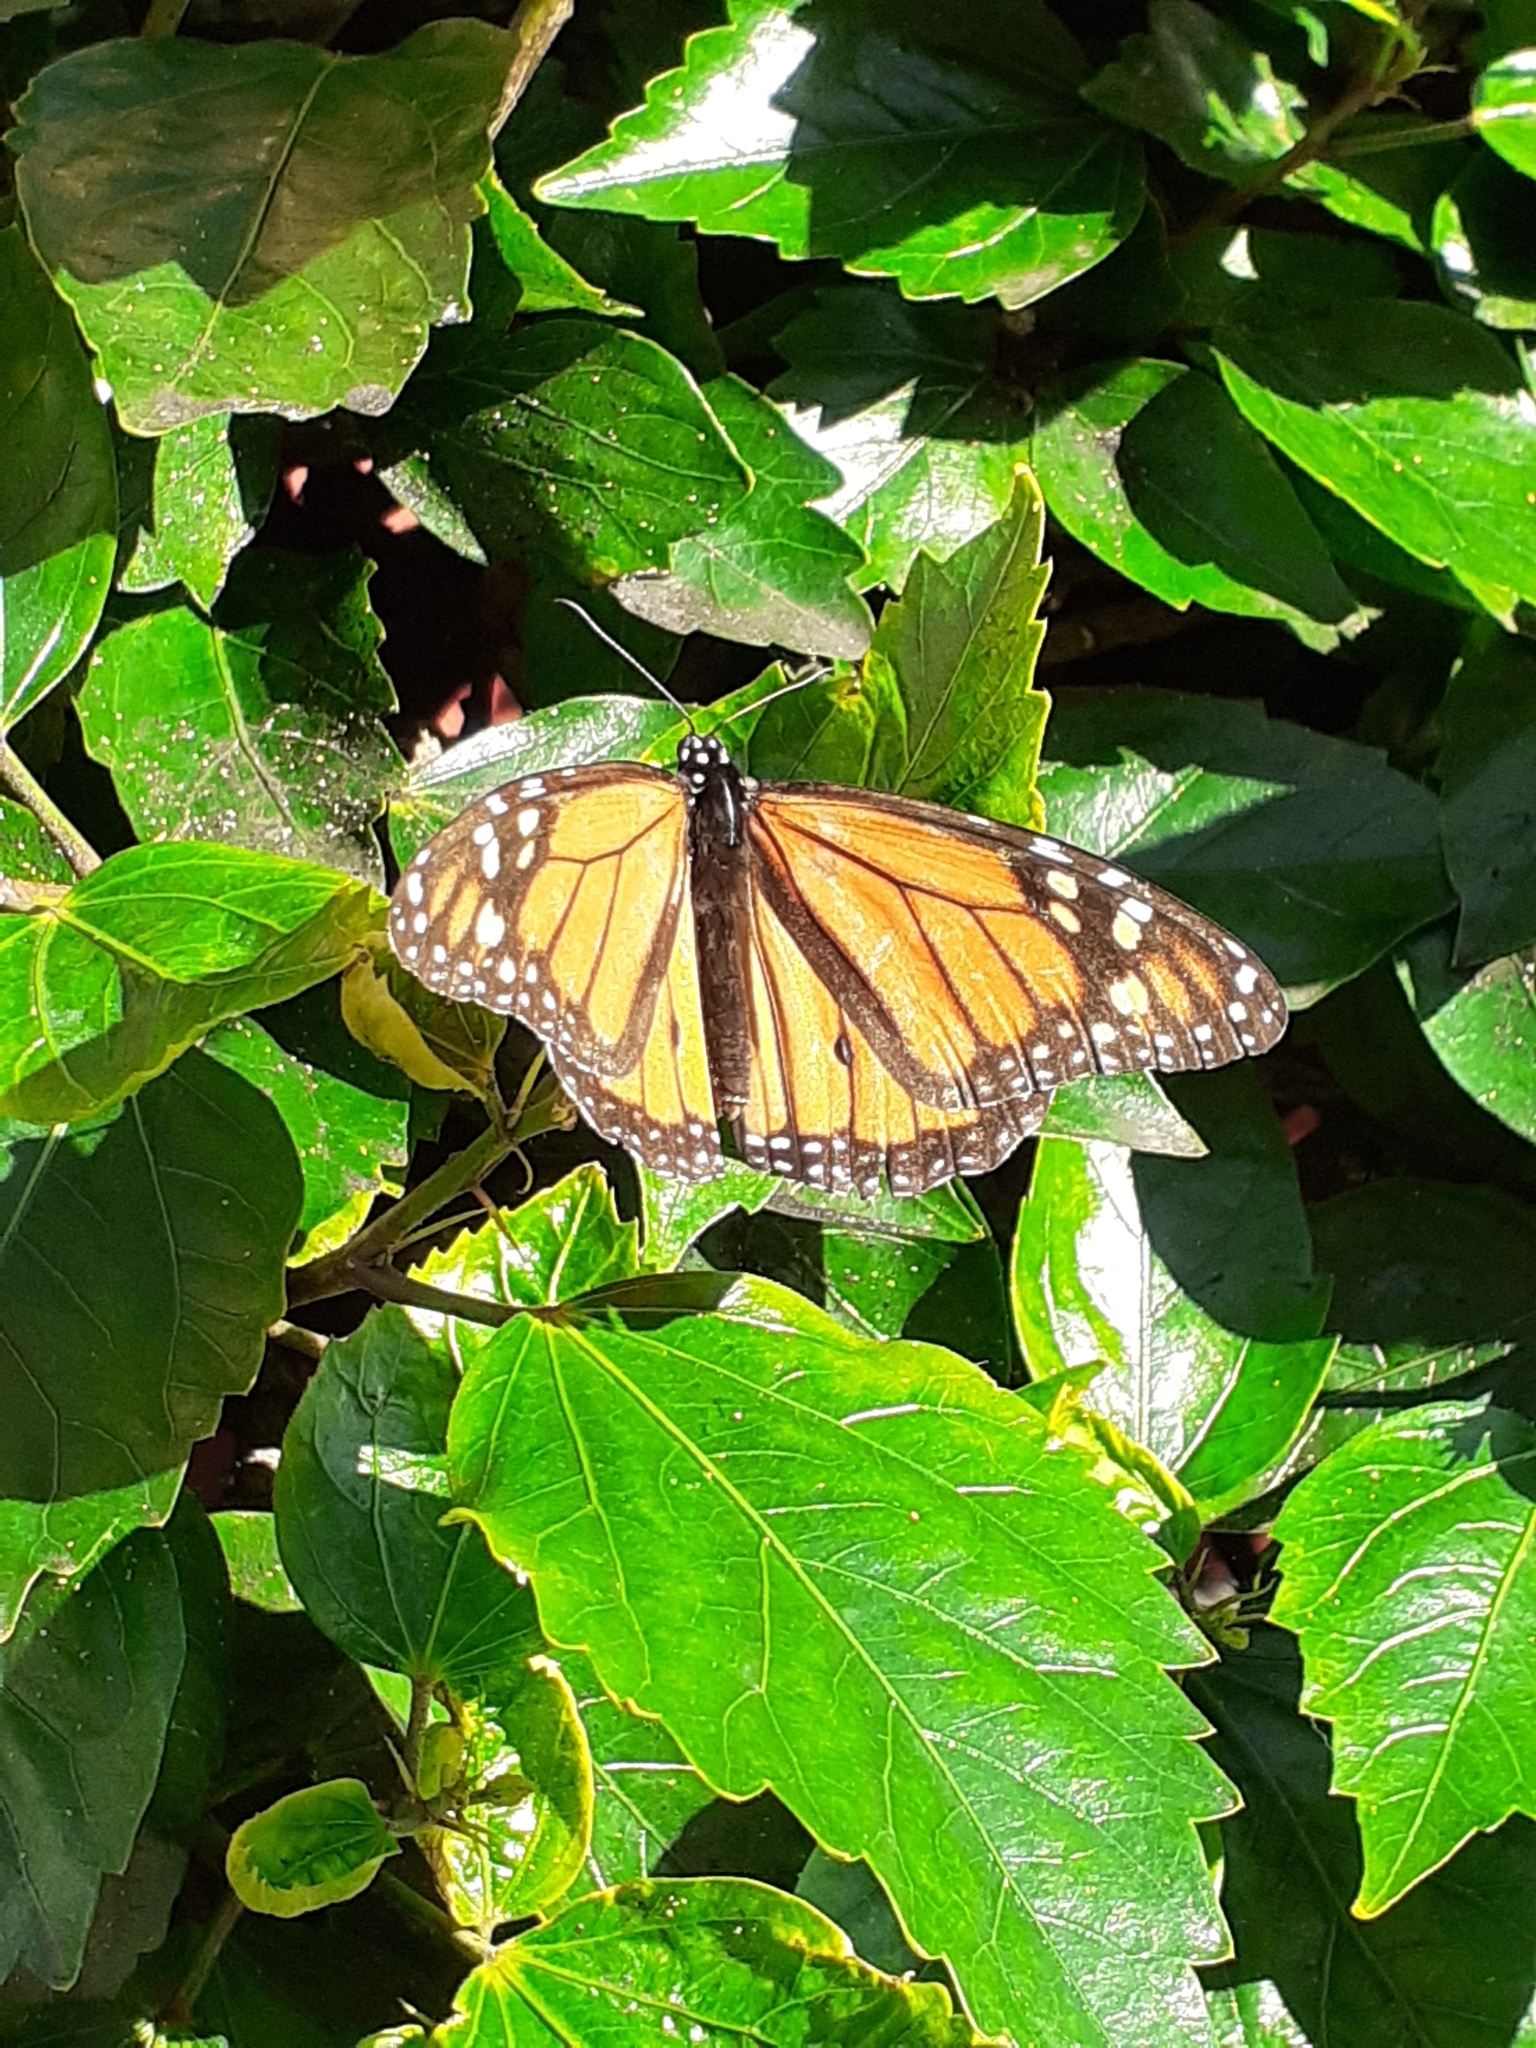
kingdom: Animalia
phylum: Arthropoda
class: Insecta
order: Lepidoptera
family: Nymphalidae
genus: Danaus
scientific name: Danaus plexippus
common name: Monarch
